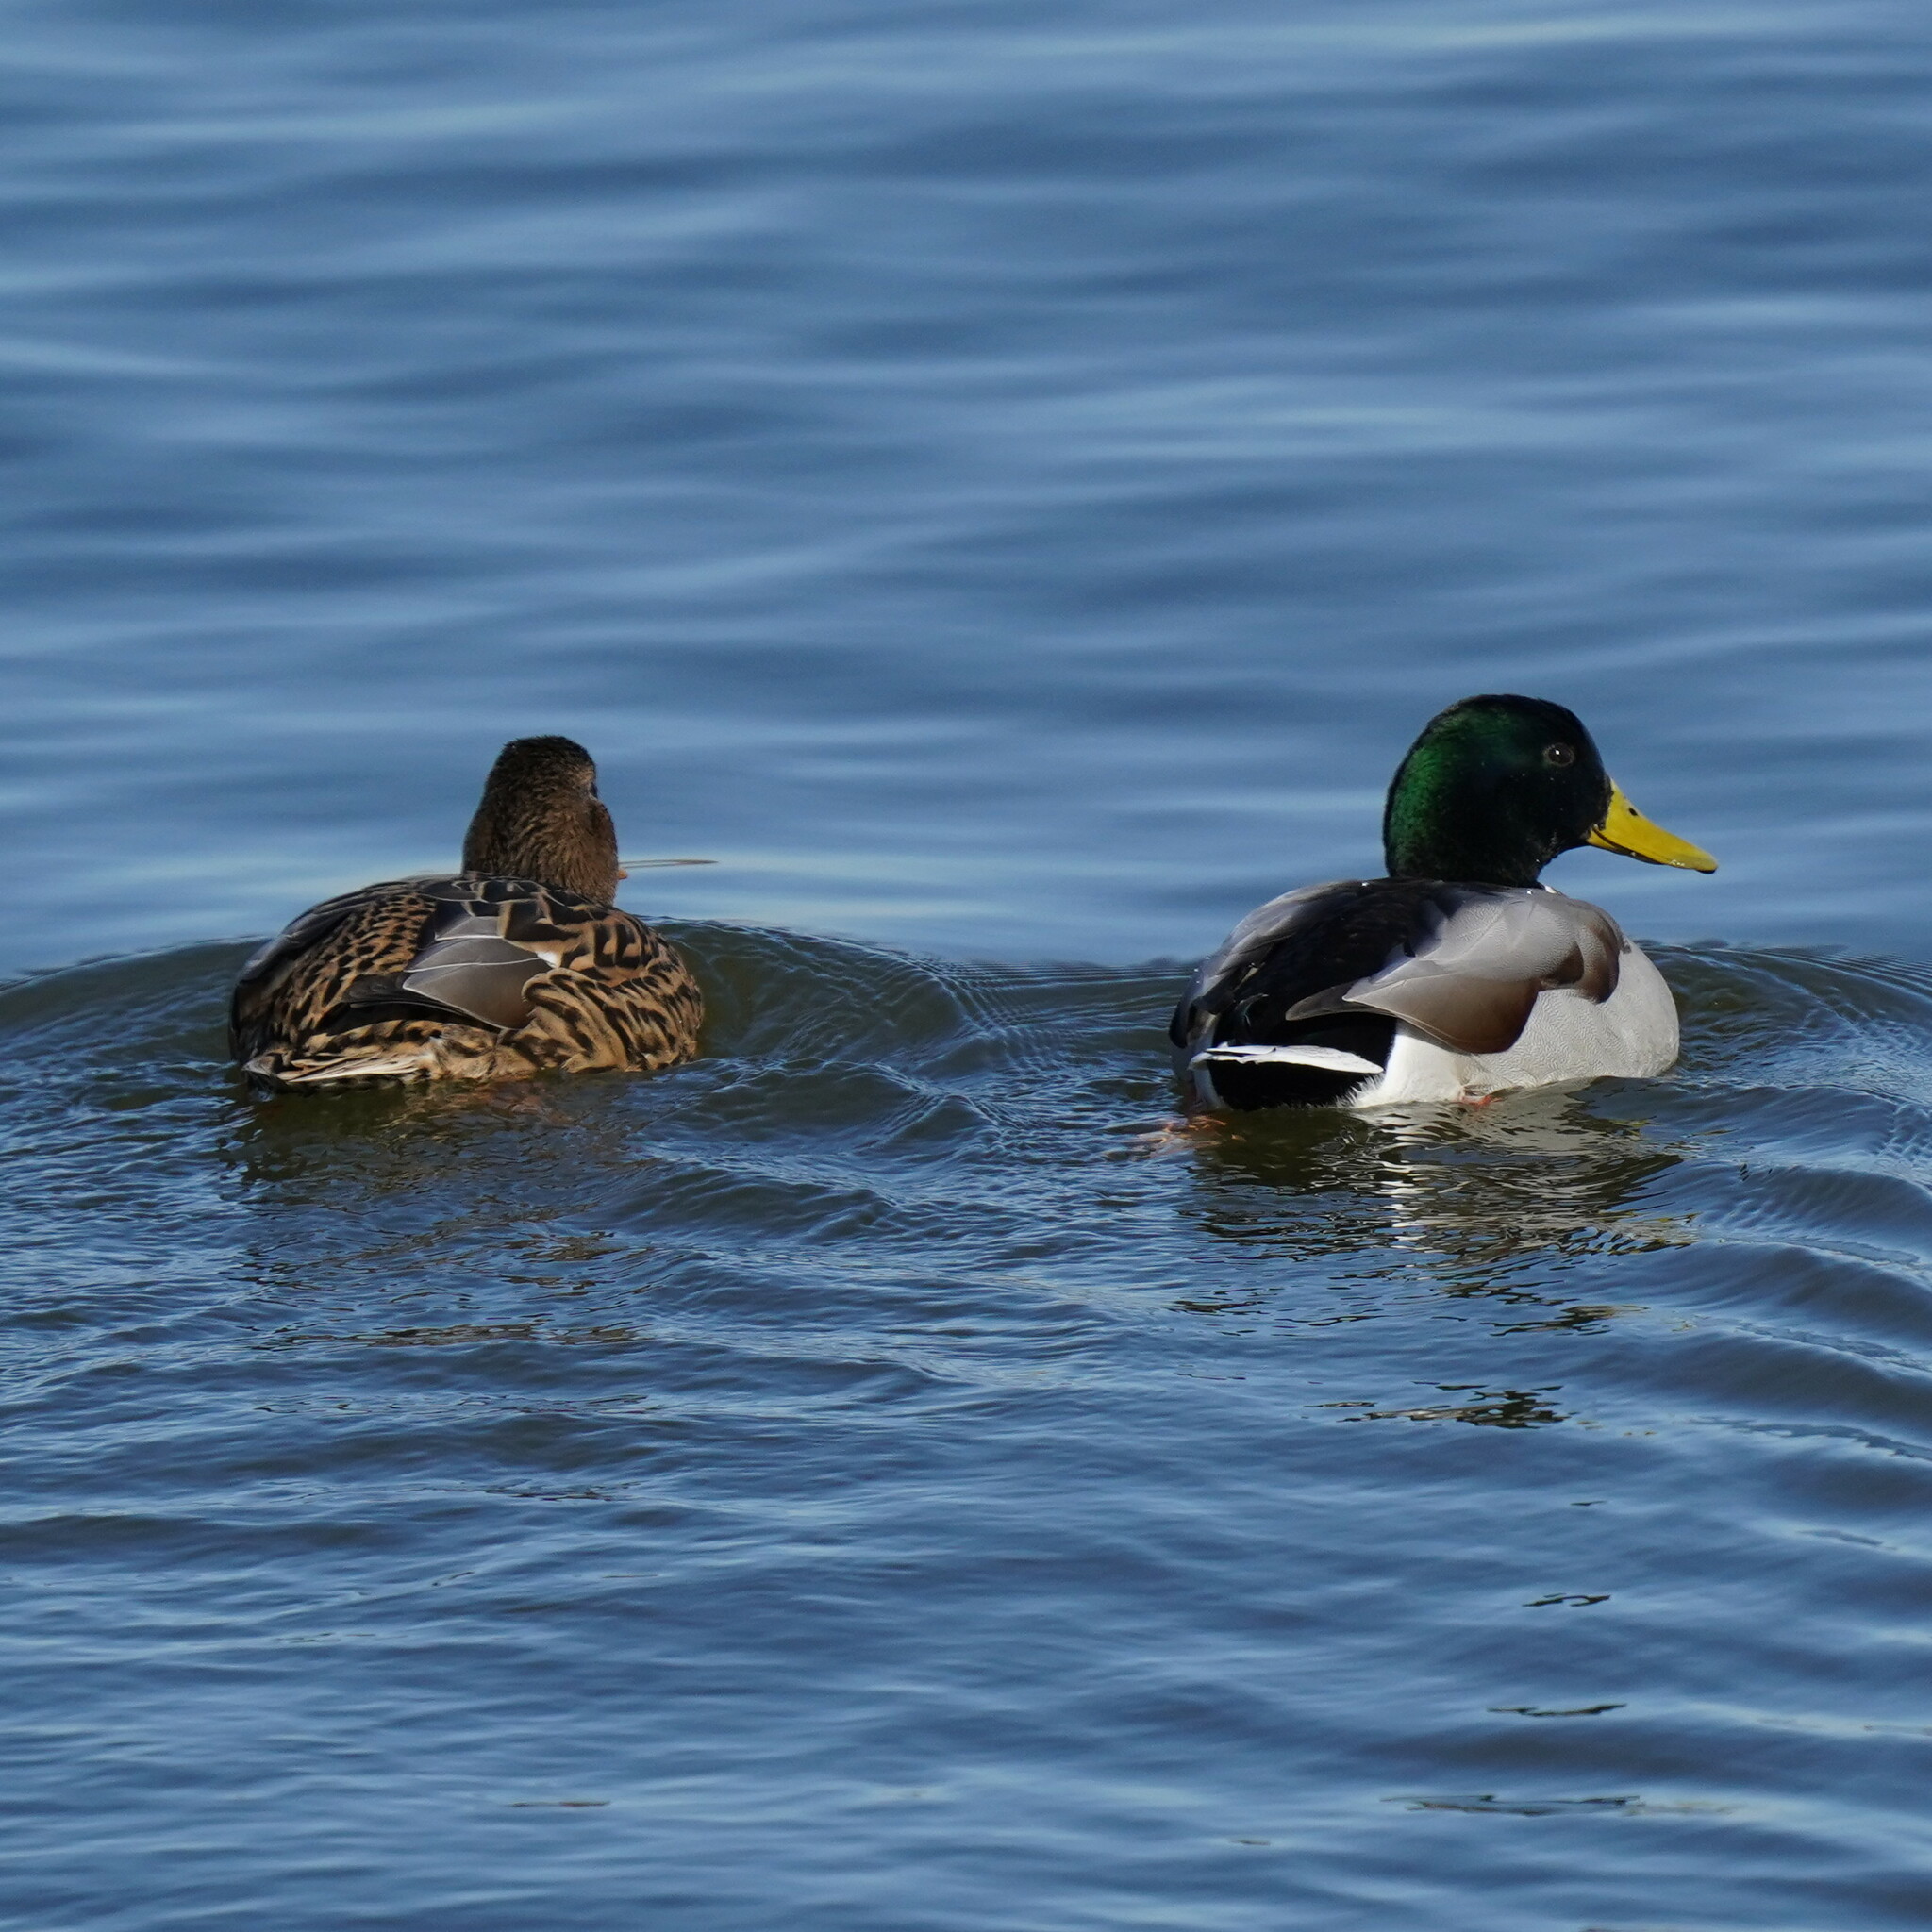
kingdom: Animalia
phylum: Chordata
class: Aves
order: Anseriformes
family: Anatidae
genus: Anas
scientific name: Anas platyrhynchos
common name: Mallard
